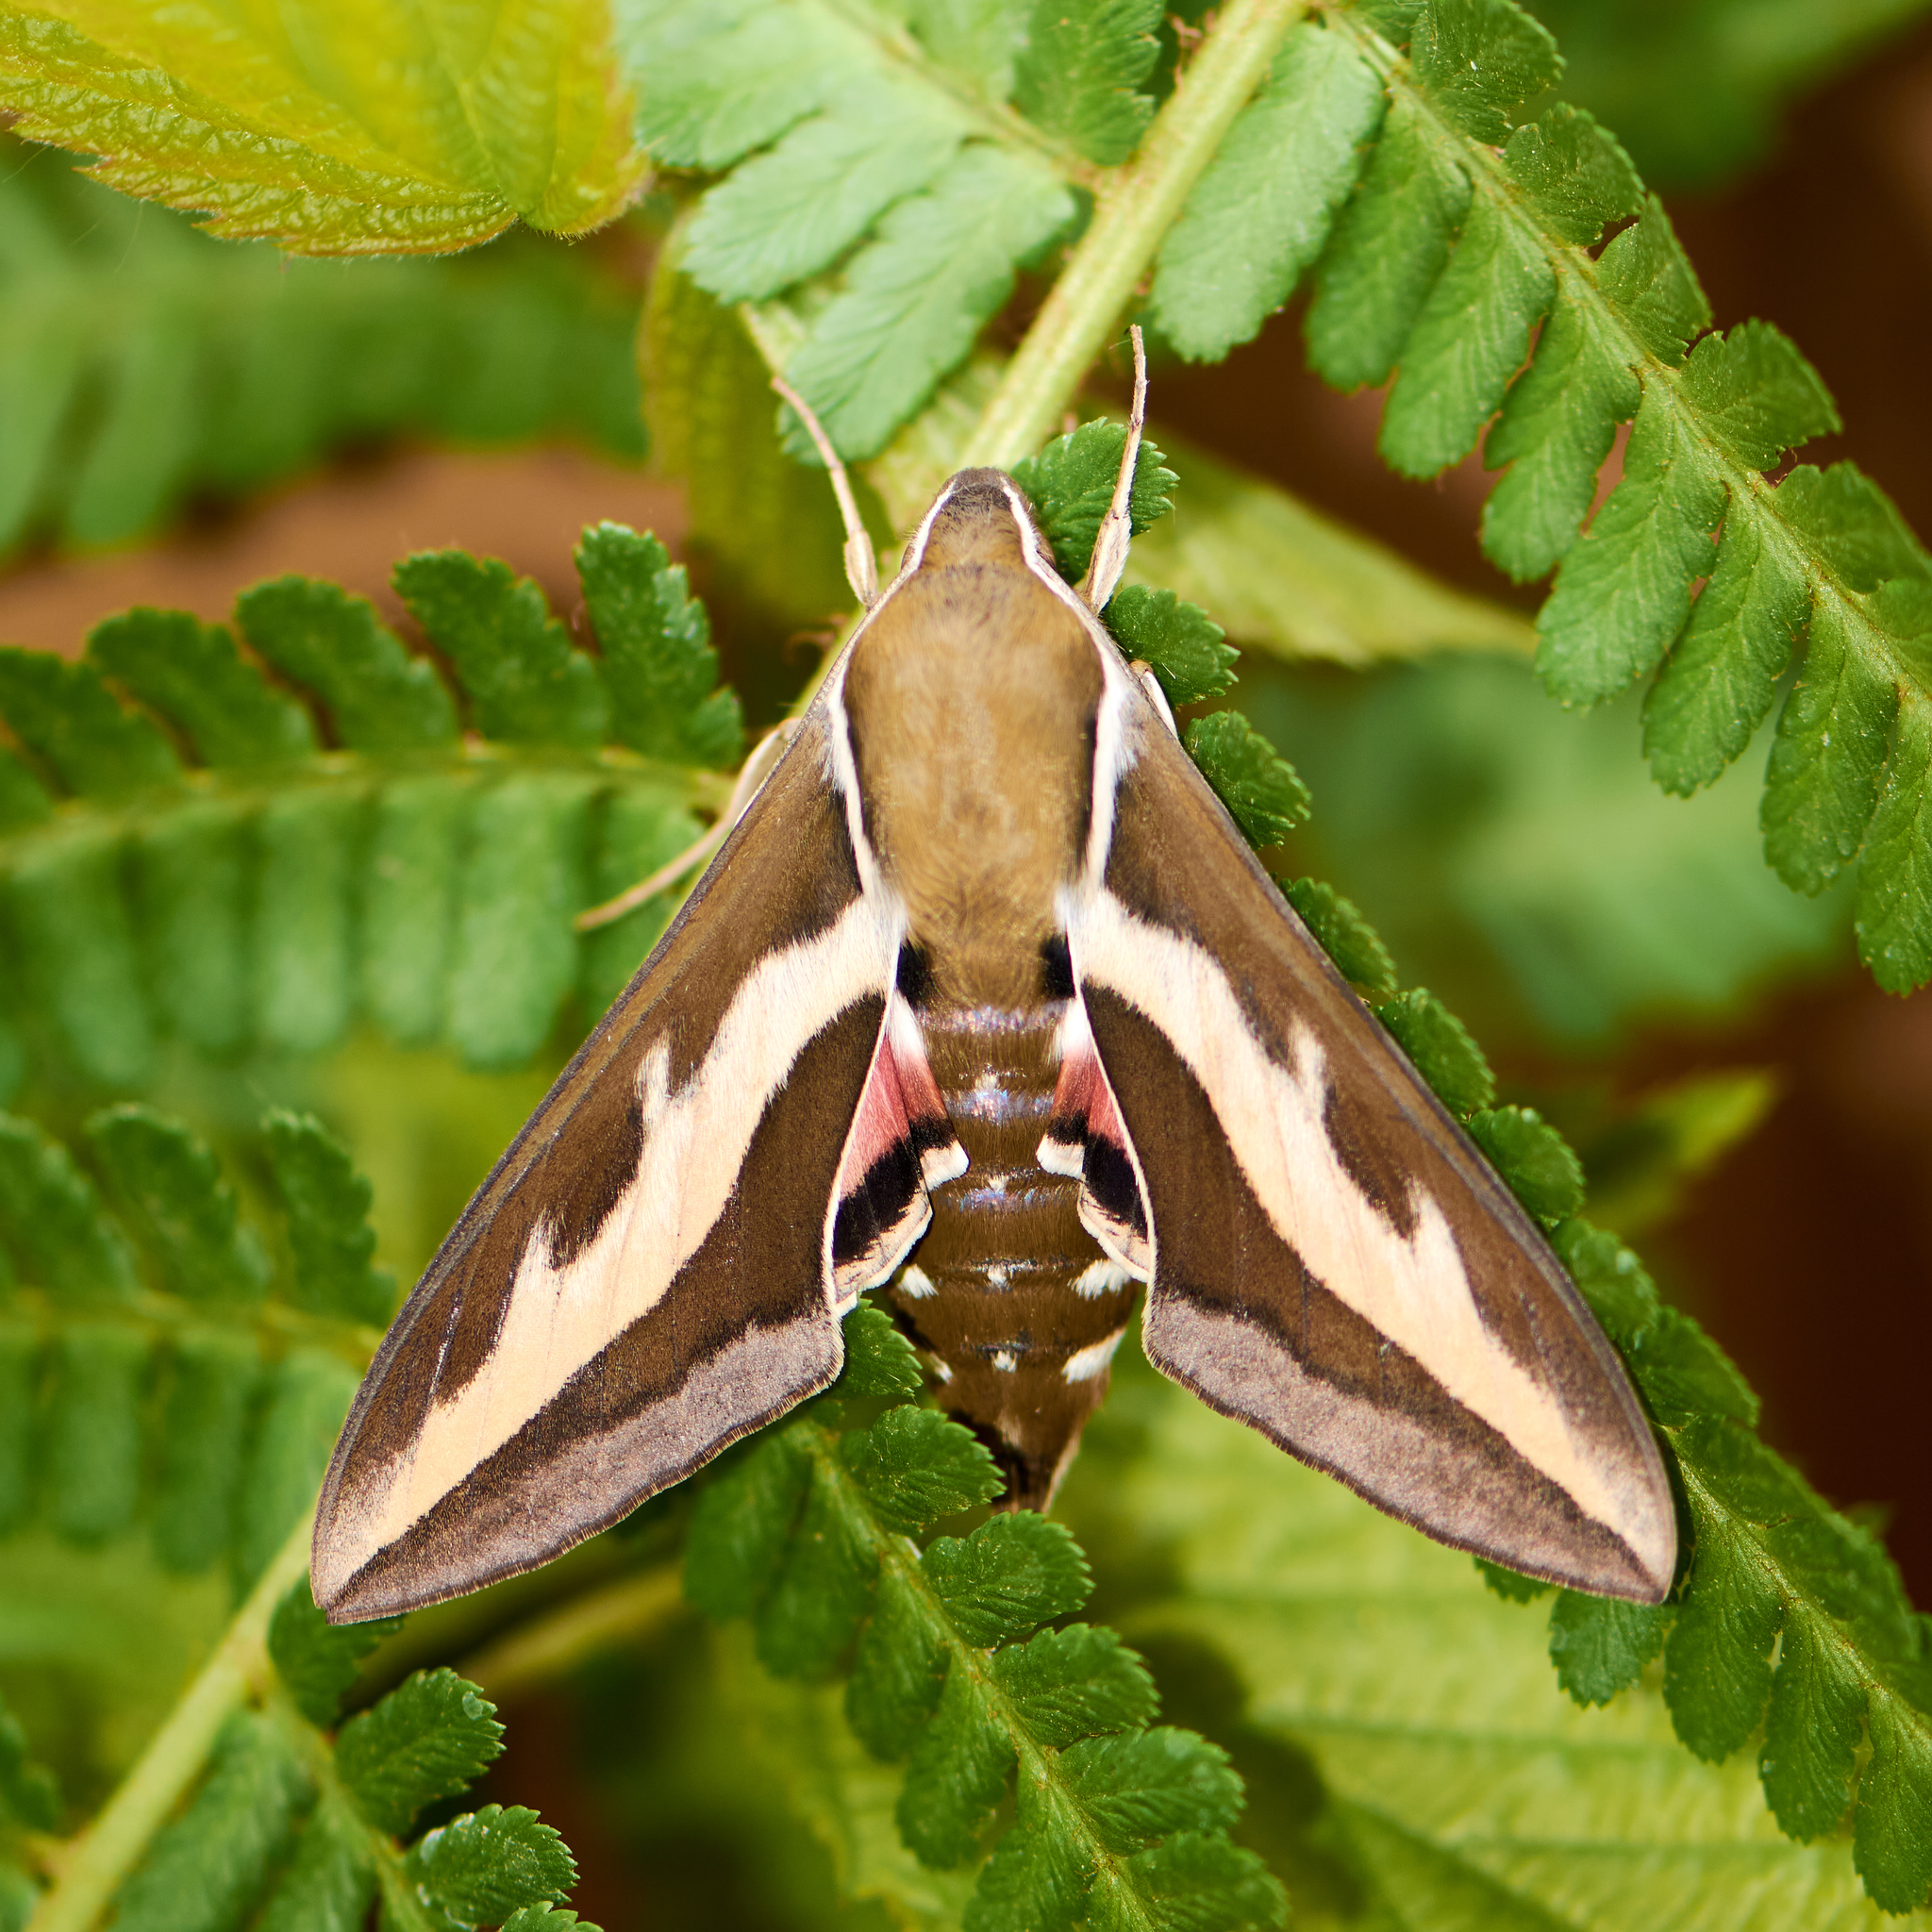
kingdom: Animalia
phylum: Arthropoda
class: Insecta
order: Lepidoptera
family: Sphingidae
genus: Hyles
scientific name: Hyles gallii
